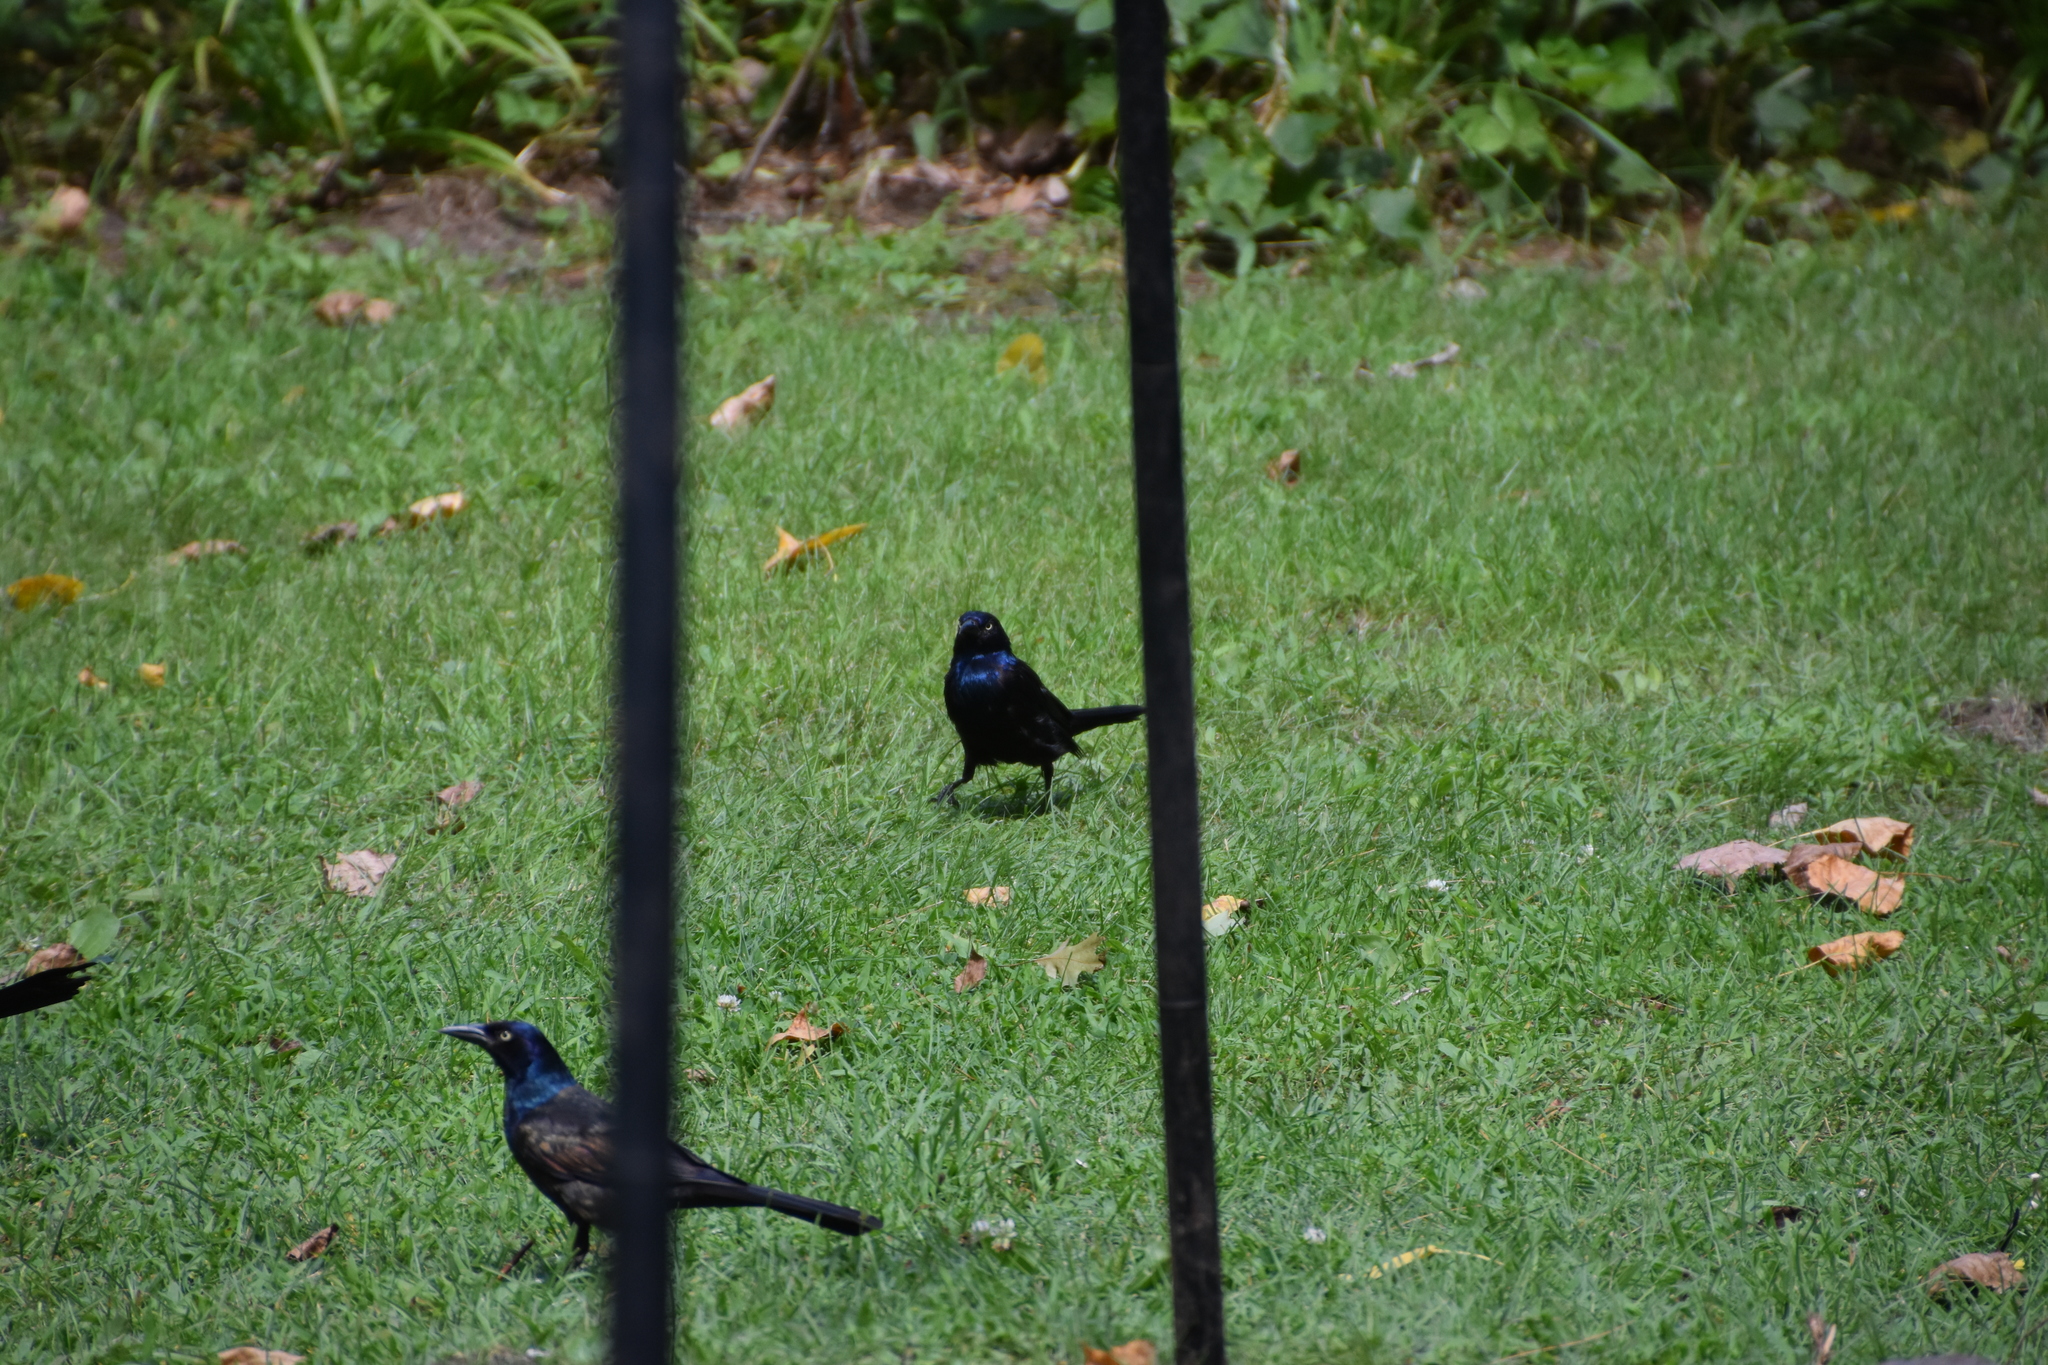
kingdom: Animalia
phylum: Chordata
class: Aves
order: Passeriformes
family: Icteridae
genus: Quiscalus
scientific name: Quiscalus quiscula
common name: Common grackle
